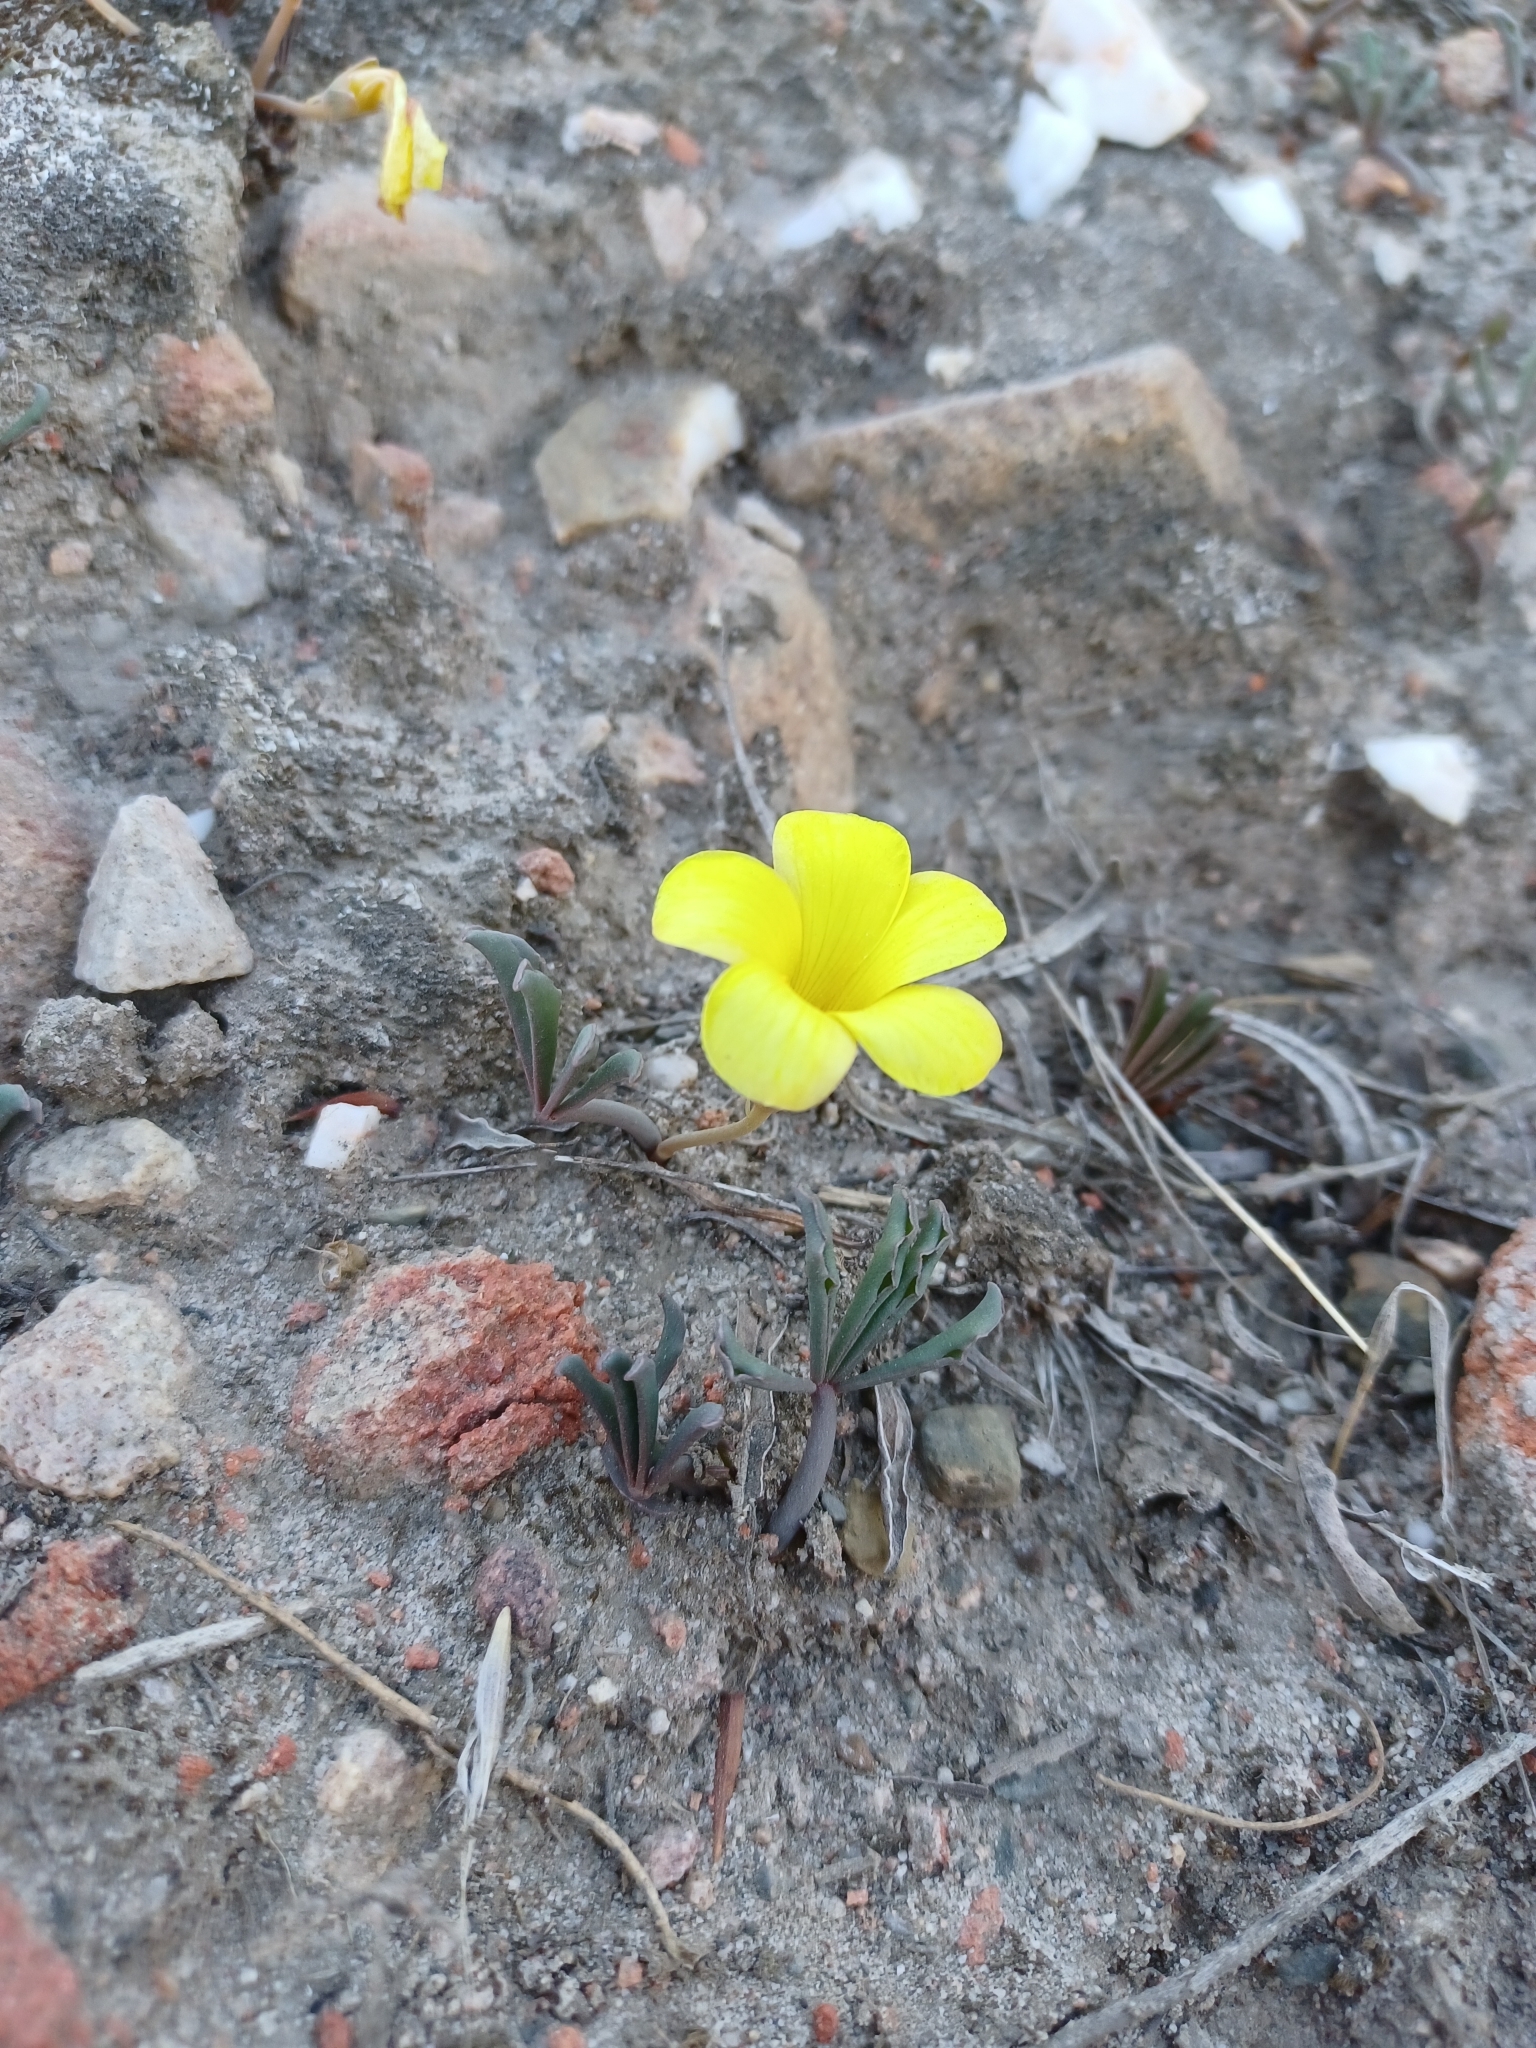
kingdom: Plantae
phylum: Tracheophyta
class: Magnoliopsida
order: Oxalidales
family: Oxalidaceae
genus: Oxalis
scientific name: Oxalis flava
